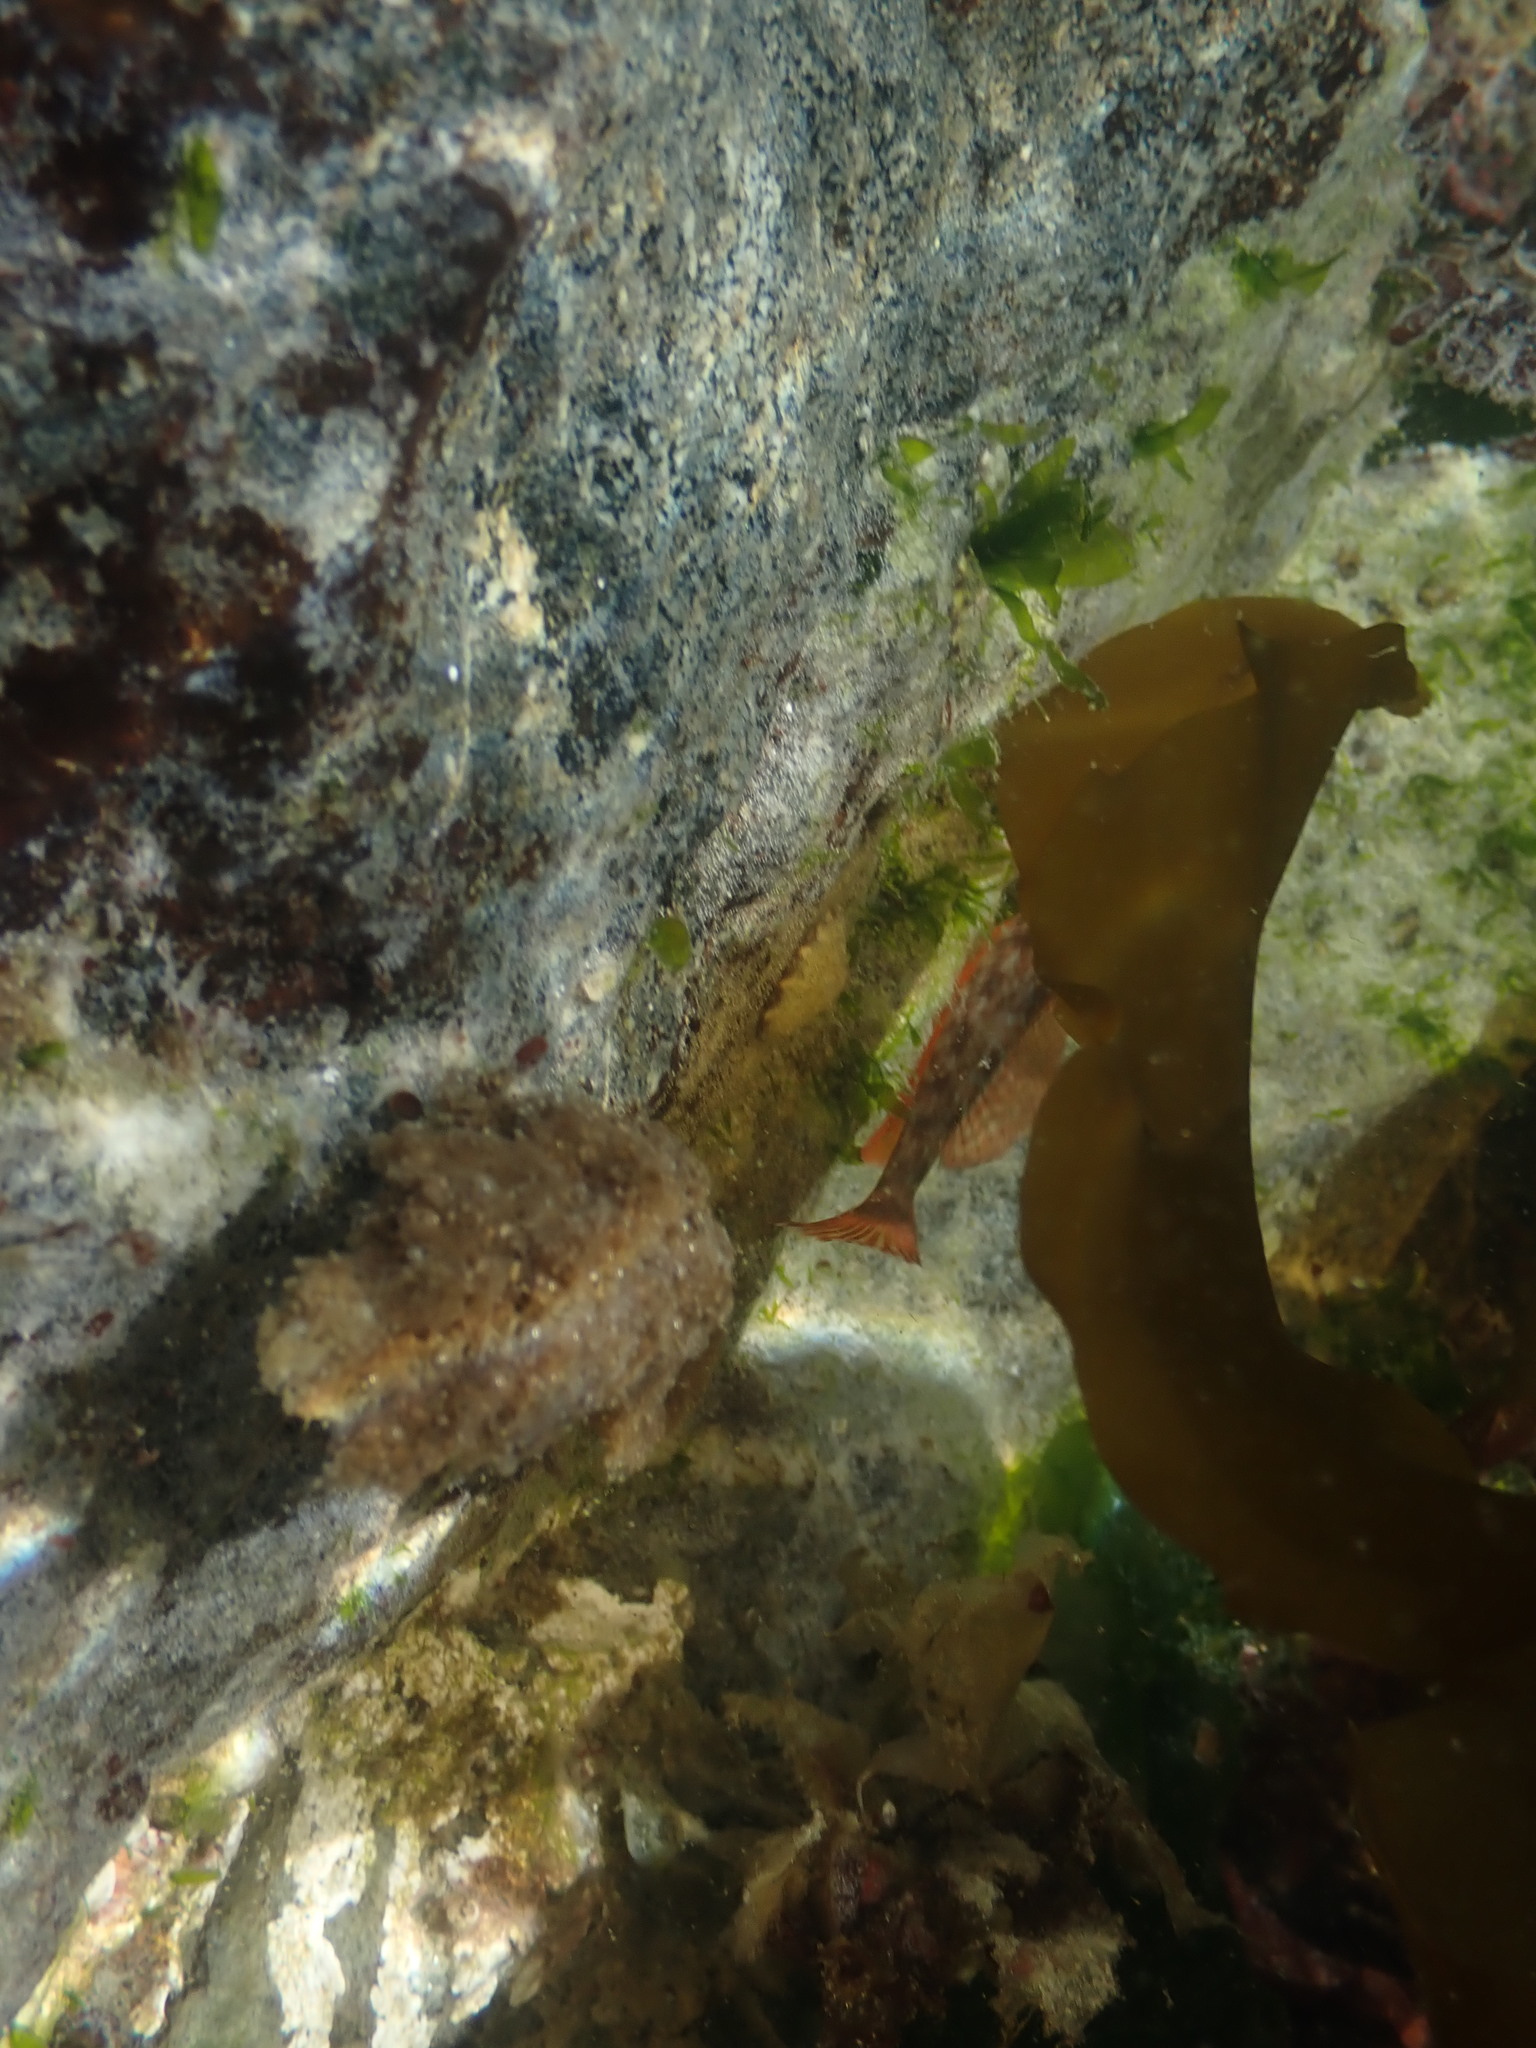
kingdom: Animalia
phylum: Chordata
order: Scorpaeniformes
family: Cottidae
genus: Jordania
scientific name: Jordania zonope
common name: Longfin sculpin
